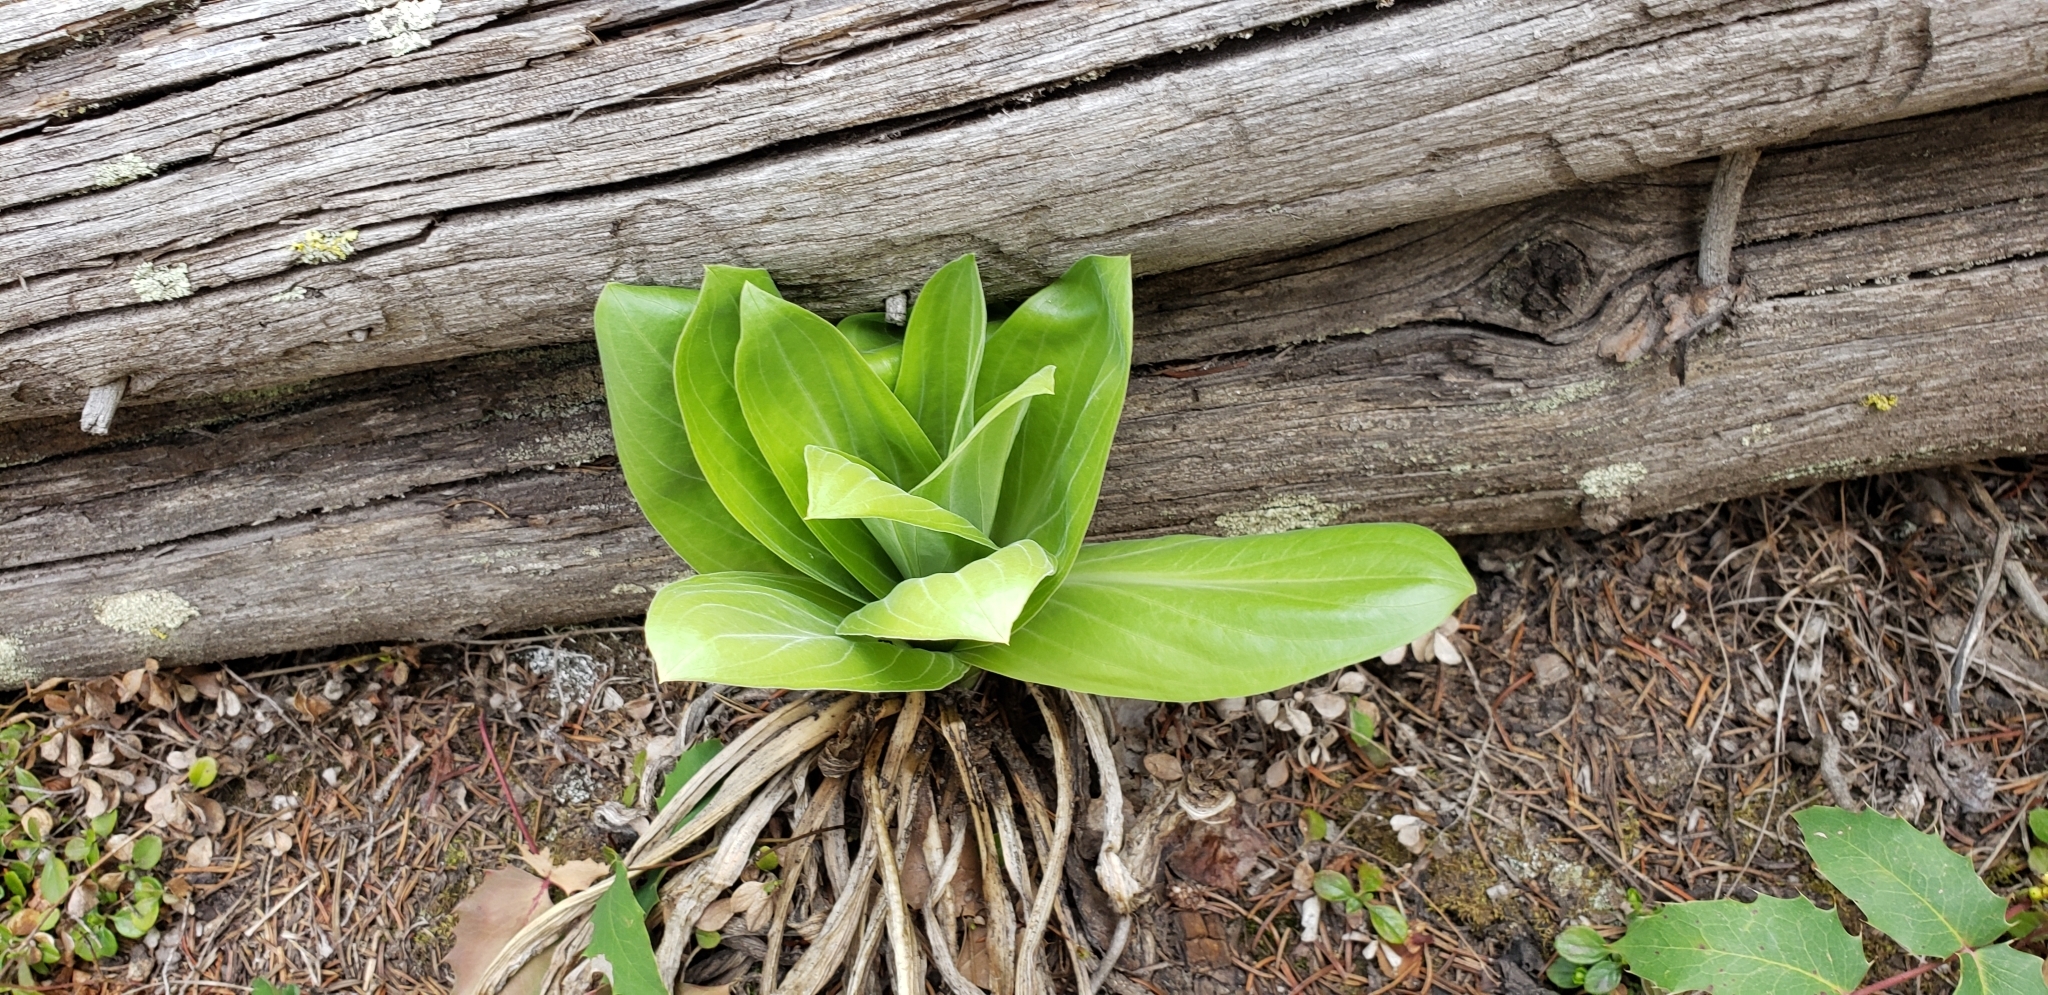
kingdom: Plantae
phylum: Tracheophyta
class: Magnoliopsida
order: Gentianales
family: Gentianaceae
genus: Frasera
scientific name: Frasera speciosa
